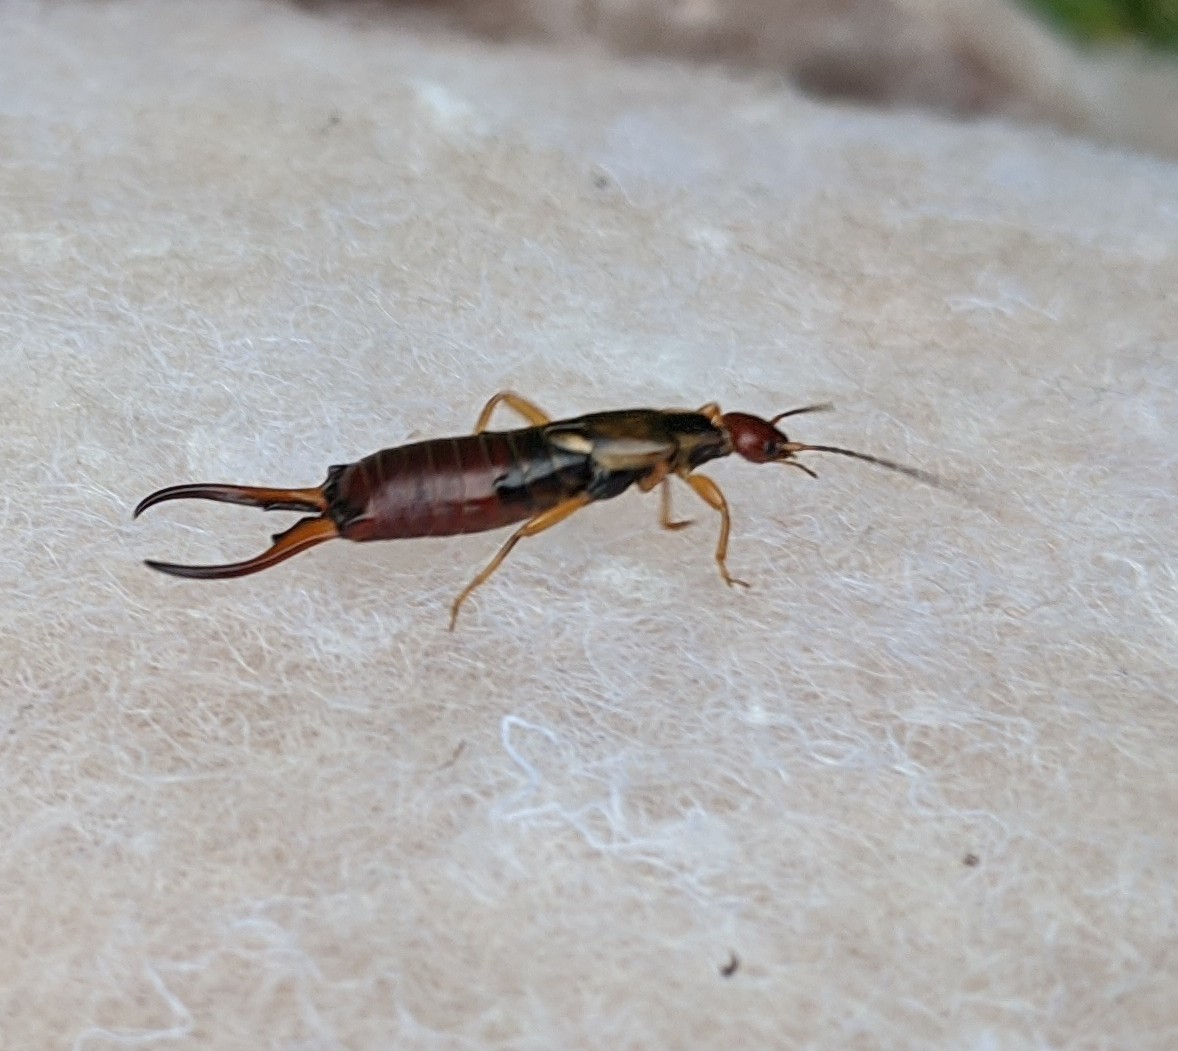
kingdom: Animalia
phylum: Arthropoda
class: Insecta
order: Dermaptera
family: Forficulidae
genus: Forficula
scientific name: Forficula
